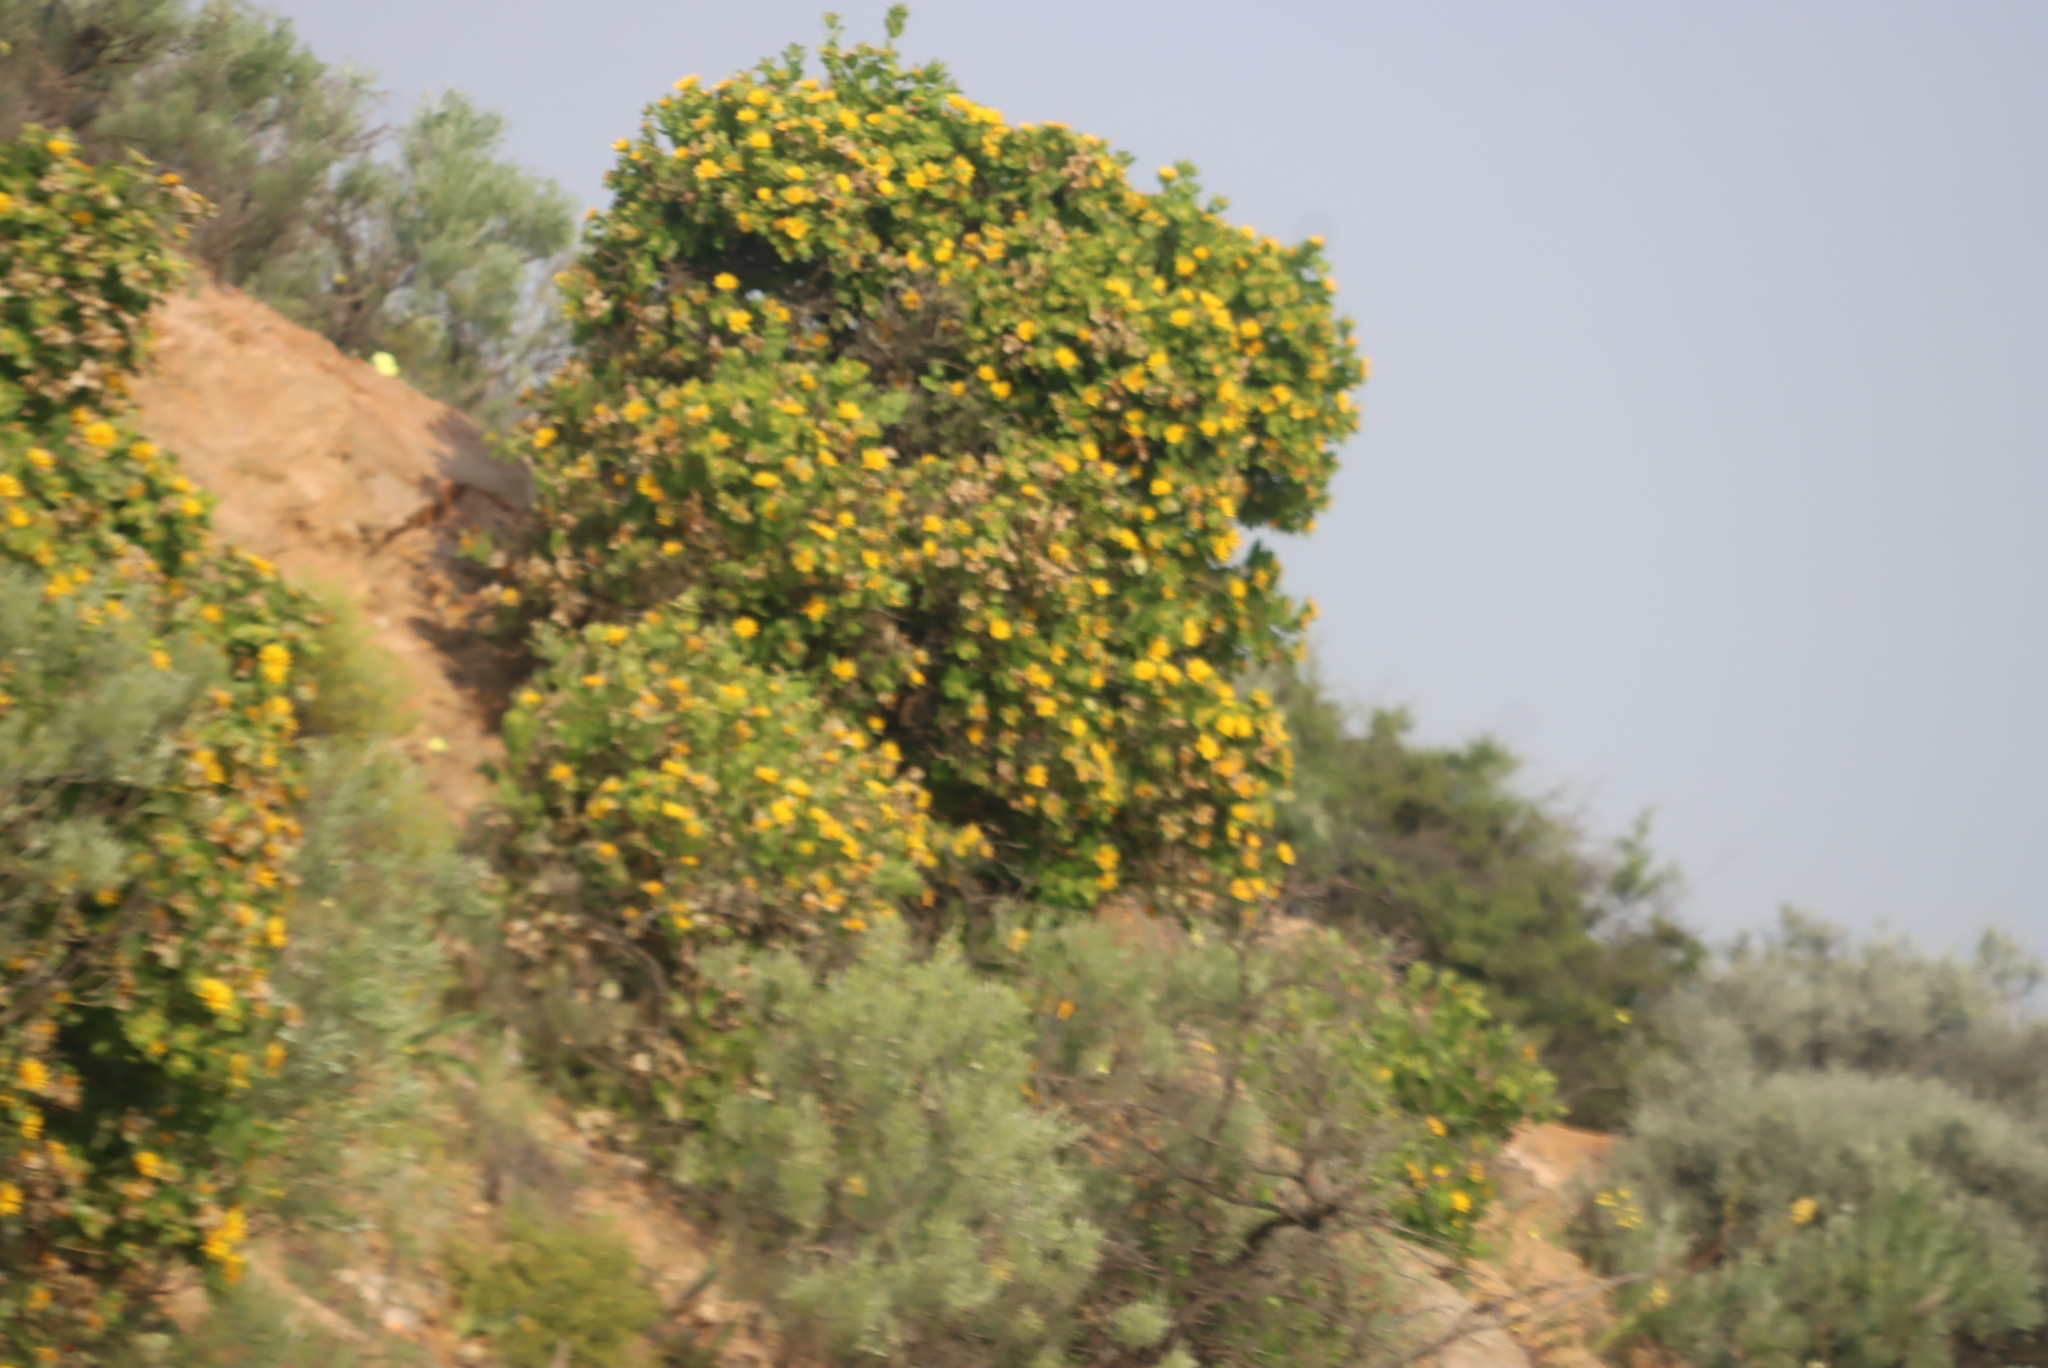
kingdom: Plantae
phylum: Tracheophyta
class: Magnoliopsida
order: Asterales
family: Asteraceae
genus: Didelta
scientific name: Didelta spinosa
